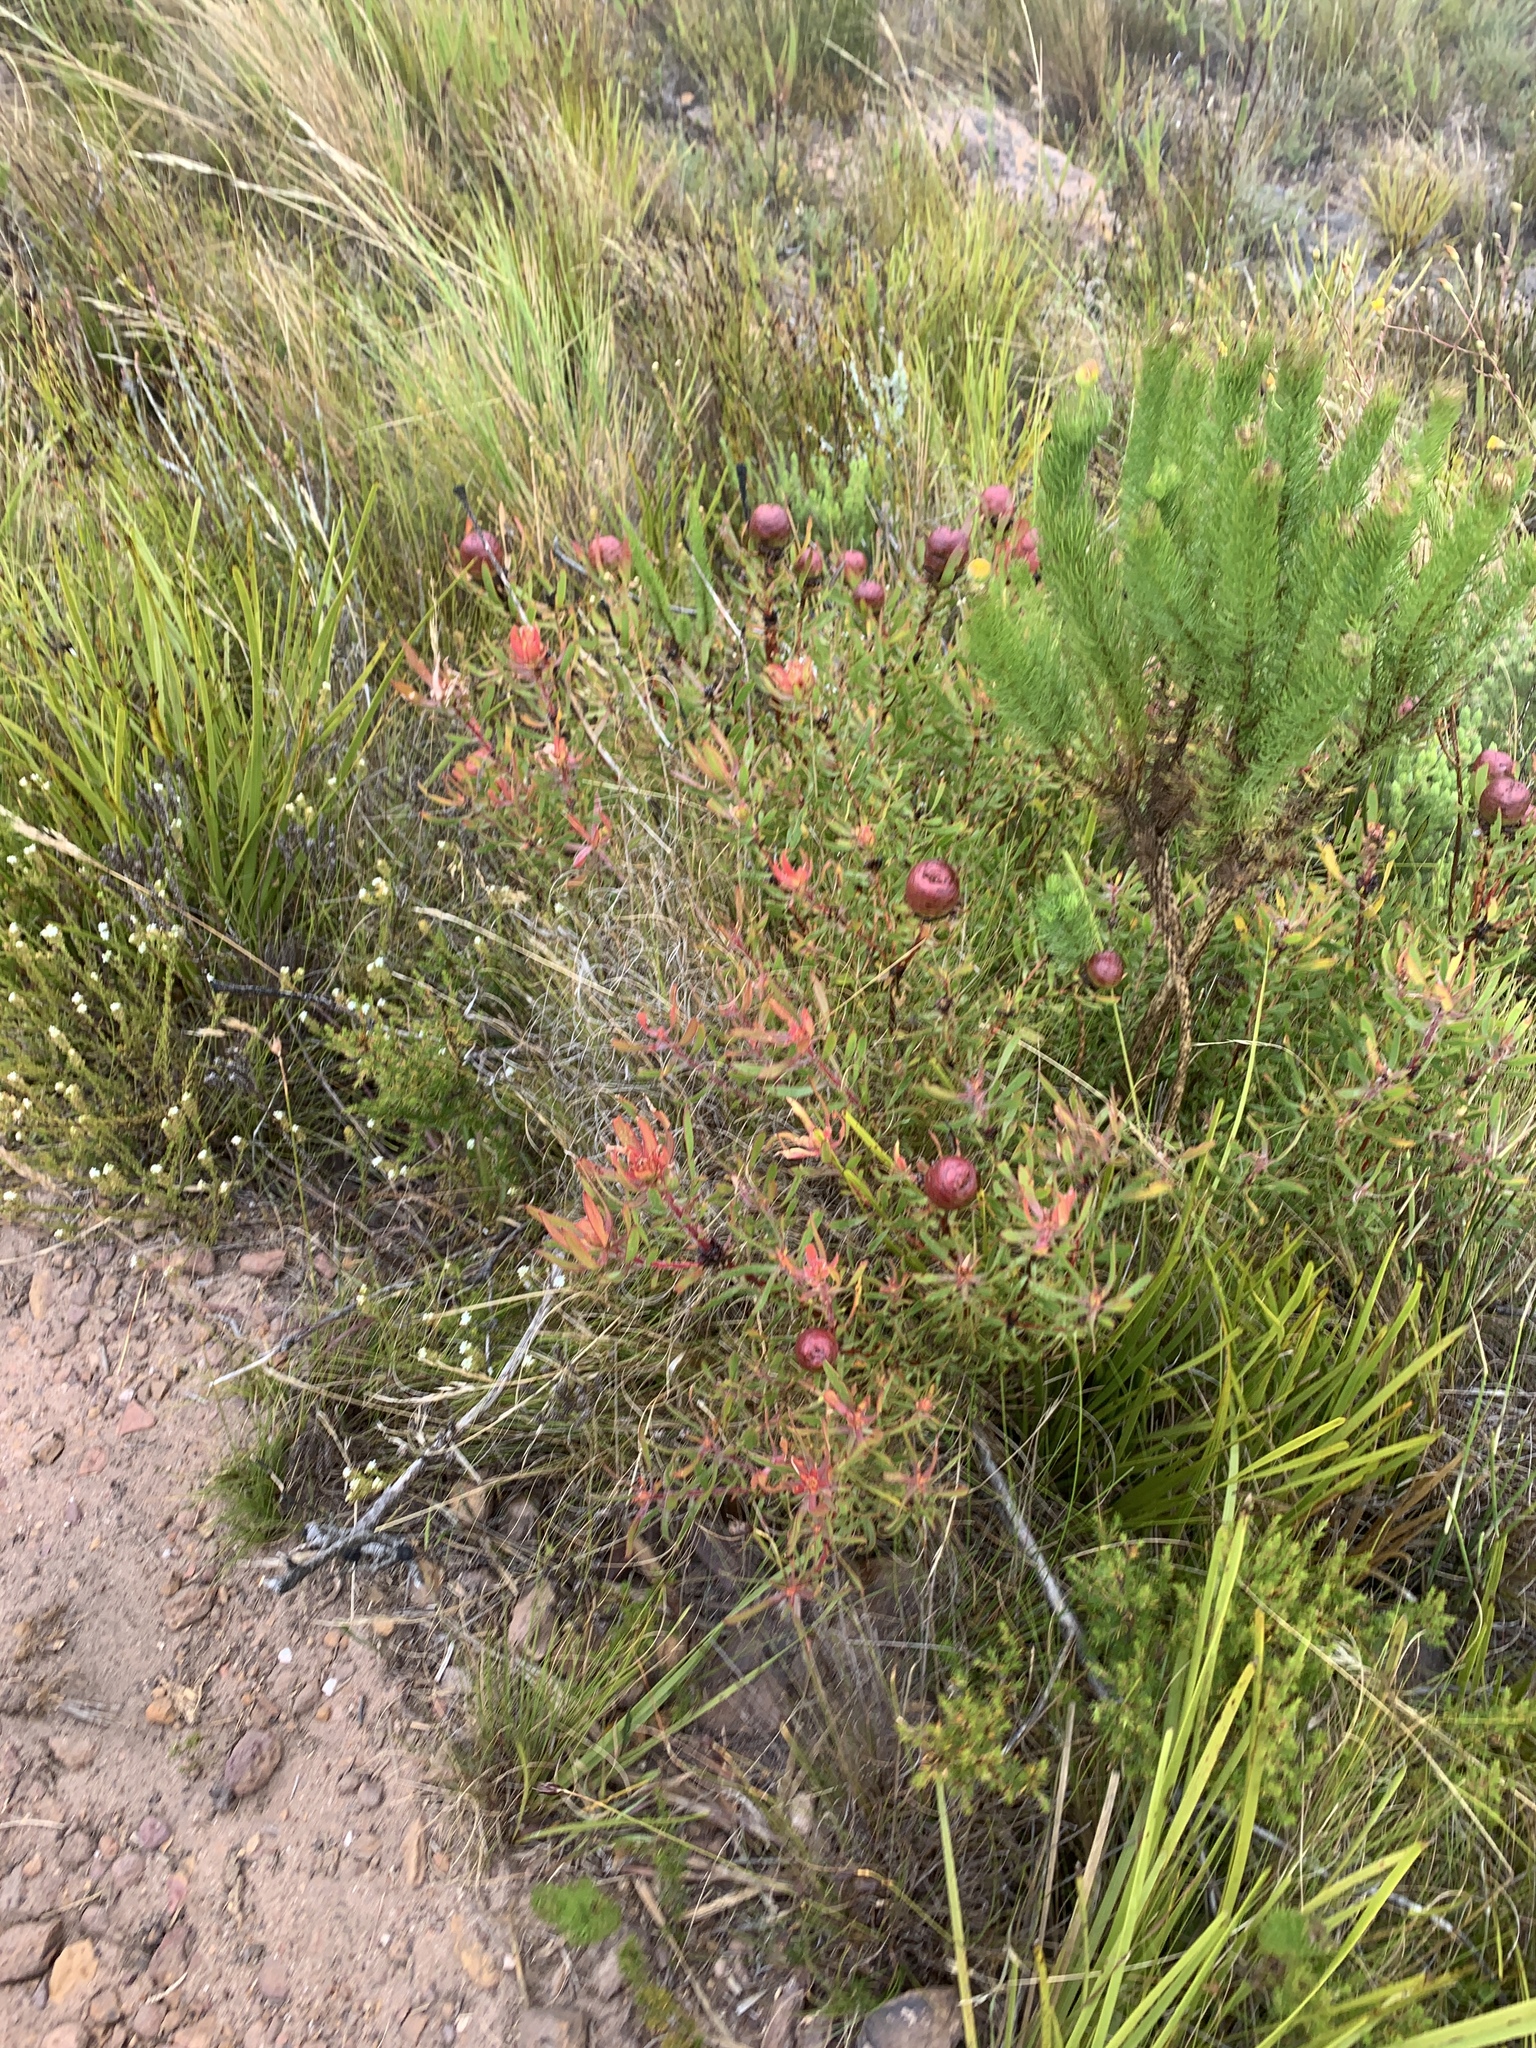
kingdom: Plantae
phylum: Tracheophyta
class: Magnoliopsida
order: Proteales
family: Proteaceae
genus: Leucadendron
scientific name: Leucadendron spissifolium
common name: Spear-leaf conebush
